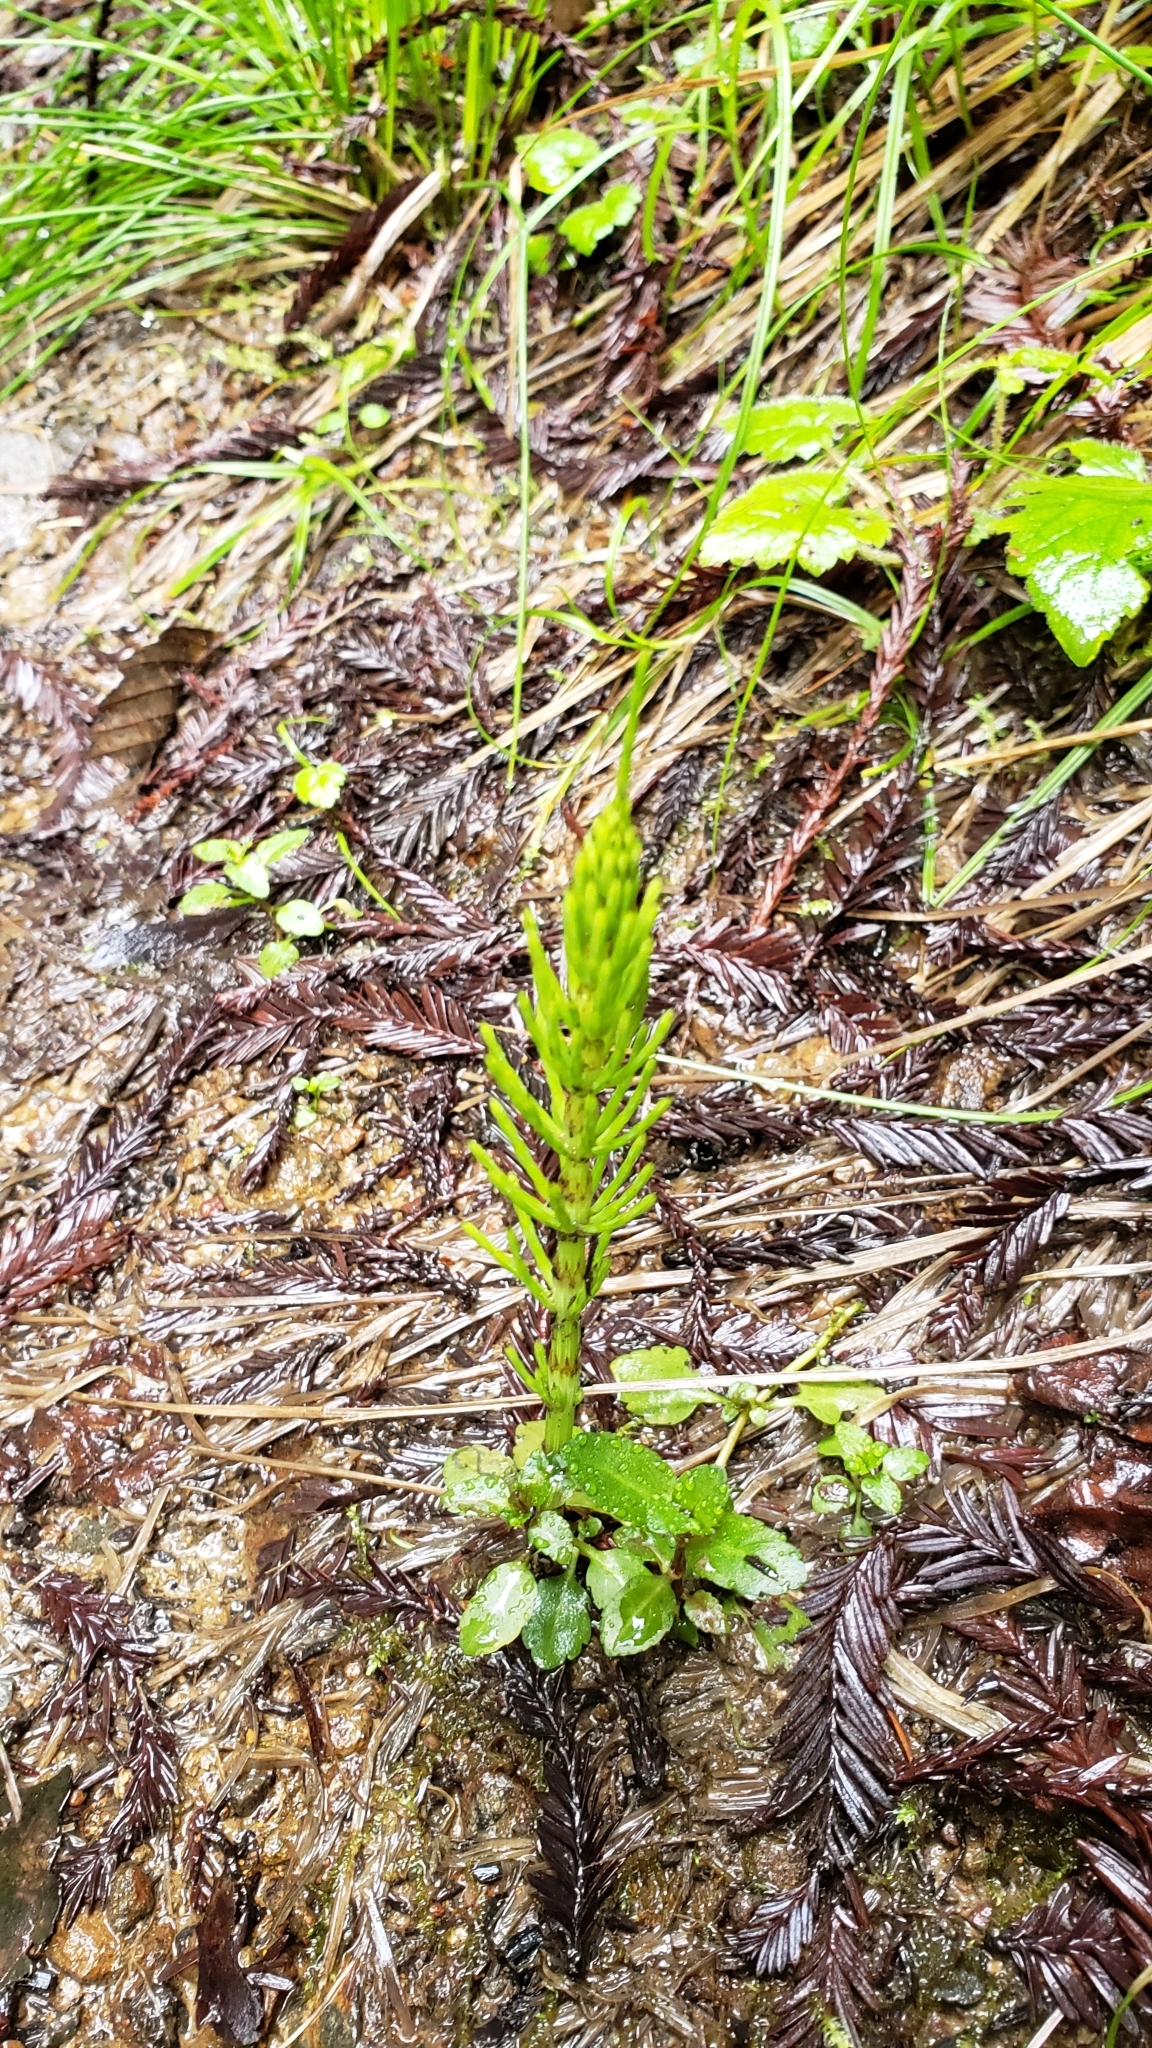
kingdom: Plantae
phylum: Tracheophyta
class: Polypodiopsida
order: Equisetales
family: Equisetaceae
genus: Equisetum
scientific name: Equisetum braunii
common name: Braun's horsetail
